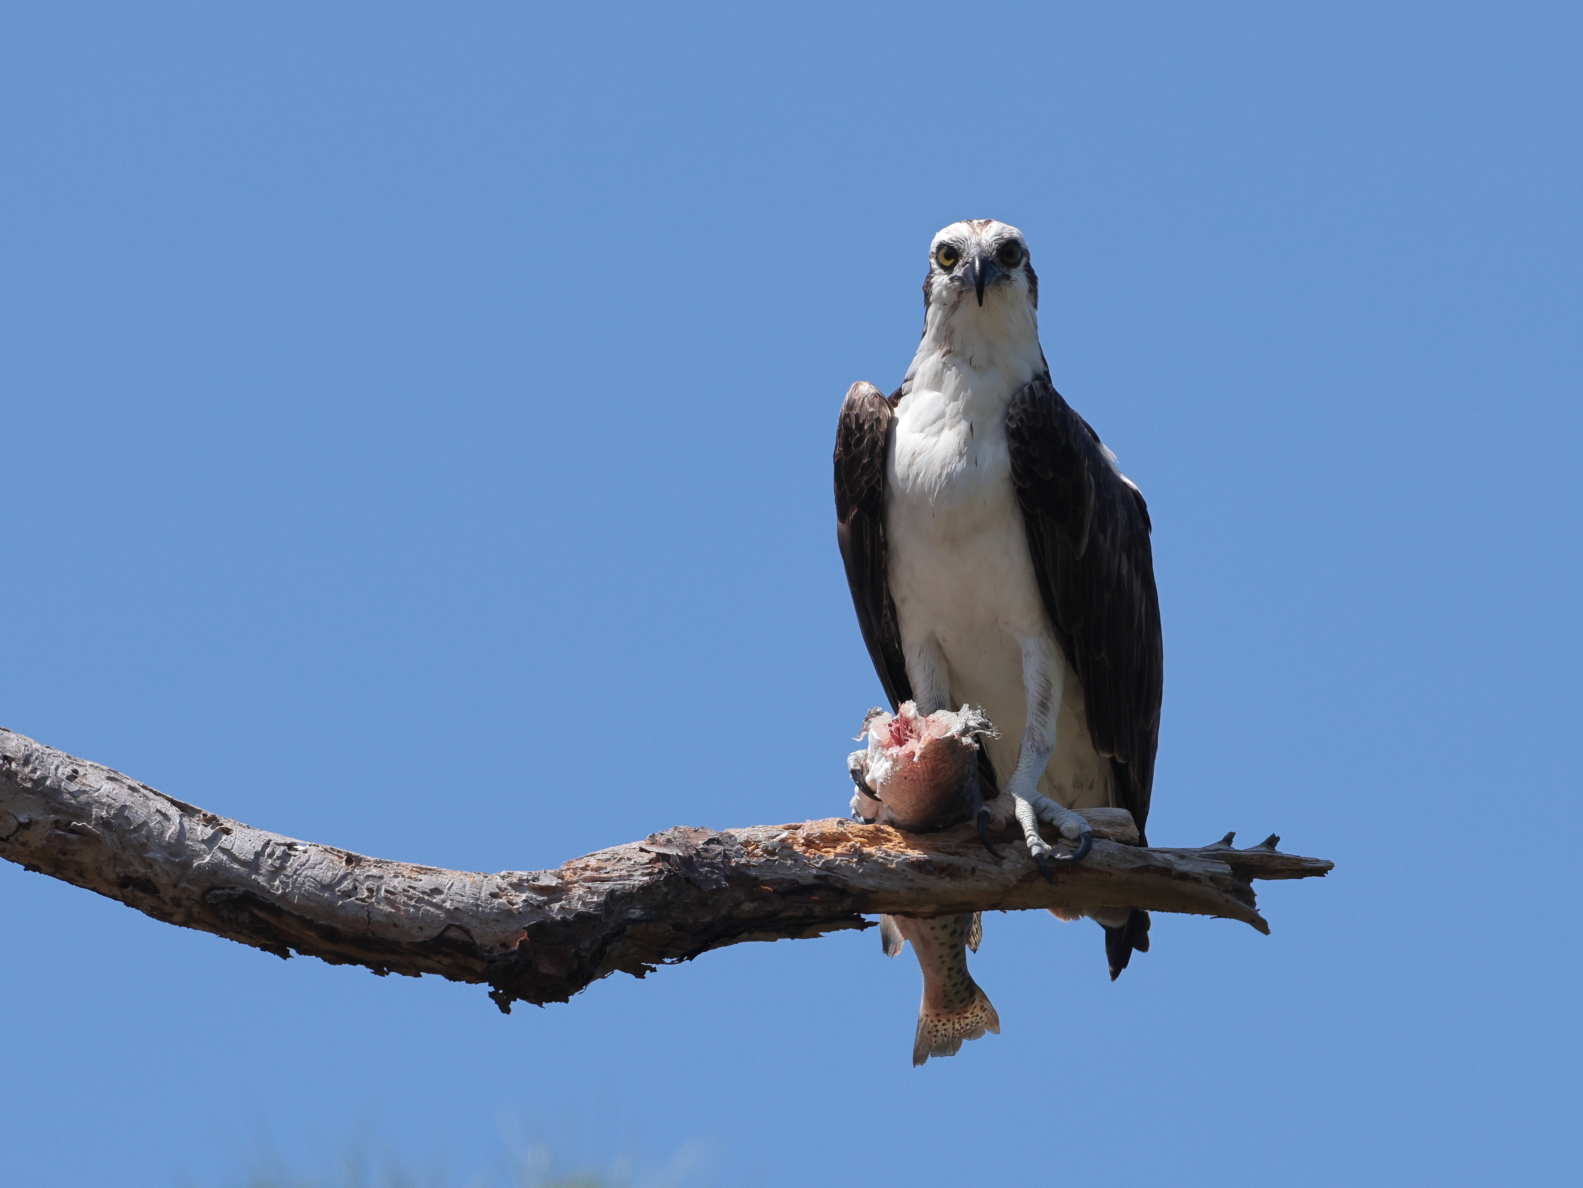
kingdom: Animalia
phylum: Chordata
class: Aves
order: Accipitriformes
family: Pandionidae
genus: Pandion
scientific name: Pandion haliaetus
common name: Osprey
